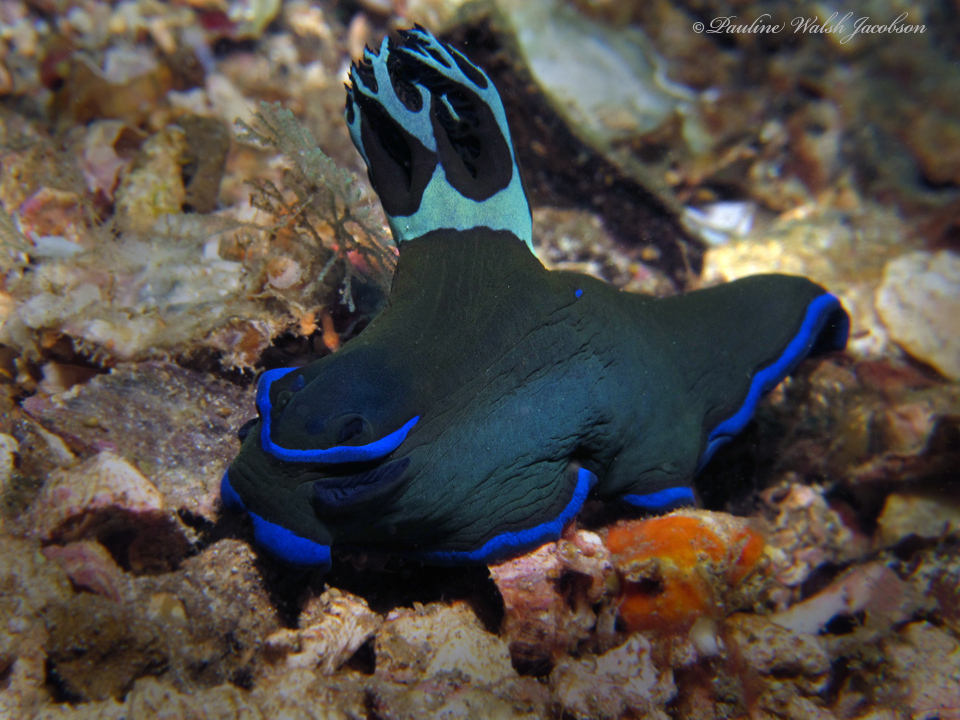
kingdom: Animalia
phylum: Mollusca
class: Gastropoda
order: Nudibranchia
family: Polyceridae
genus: Tambja
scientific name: Tambja morosa
